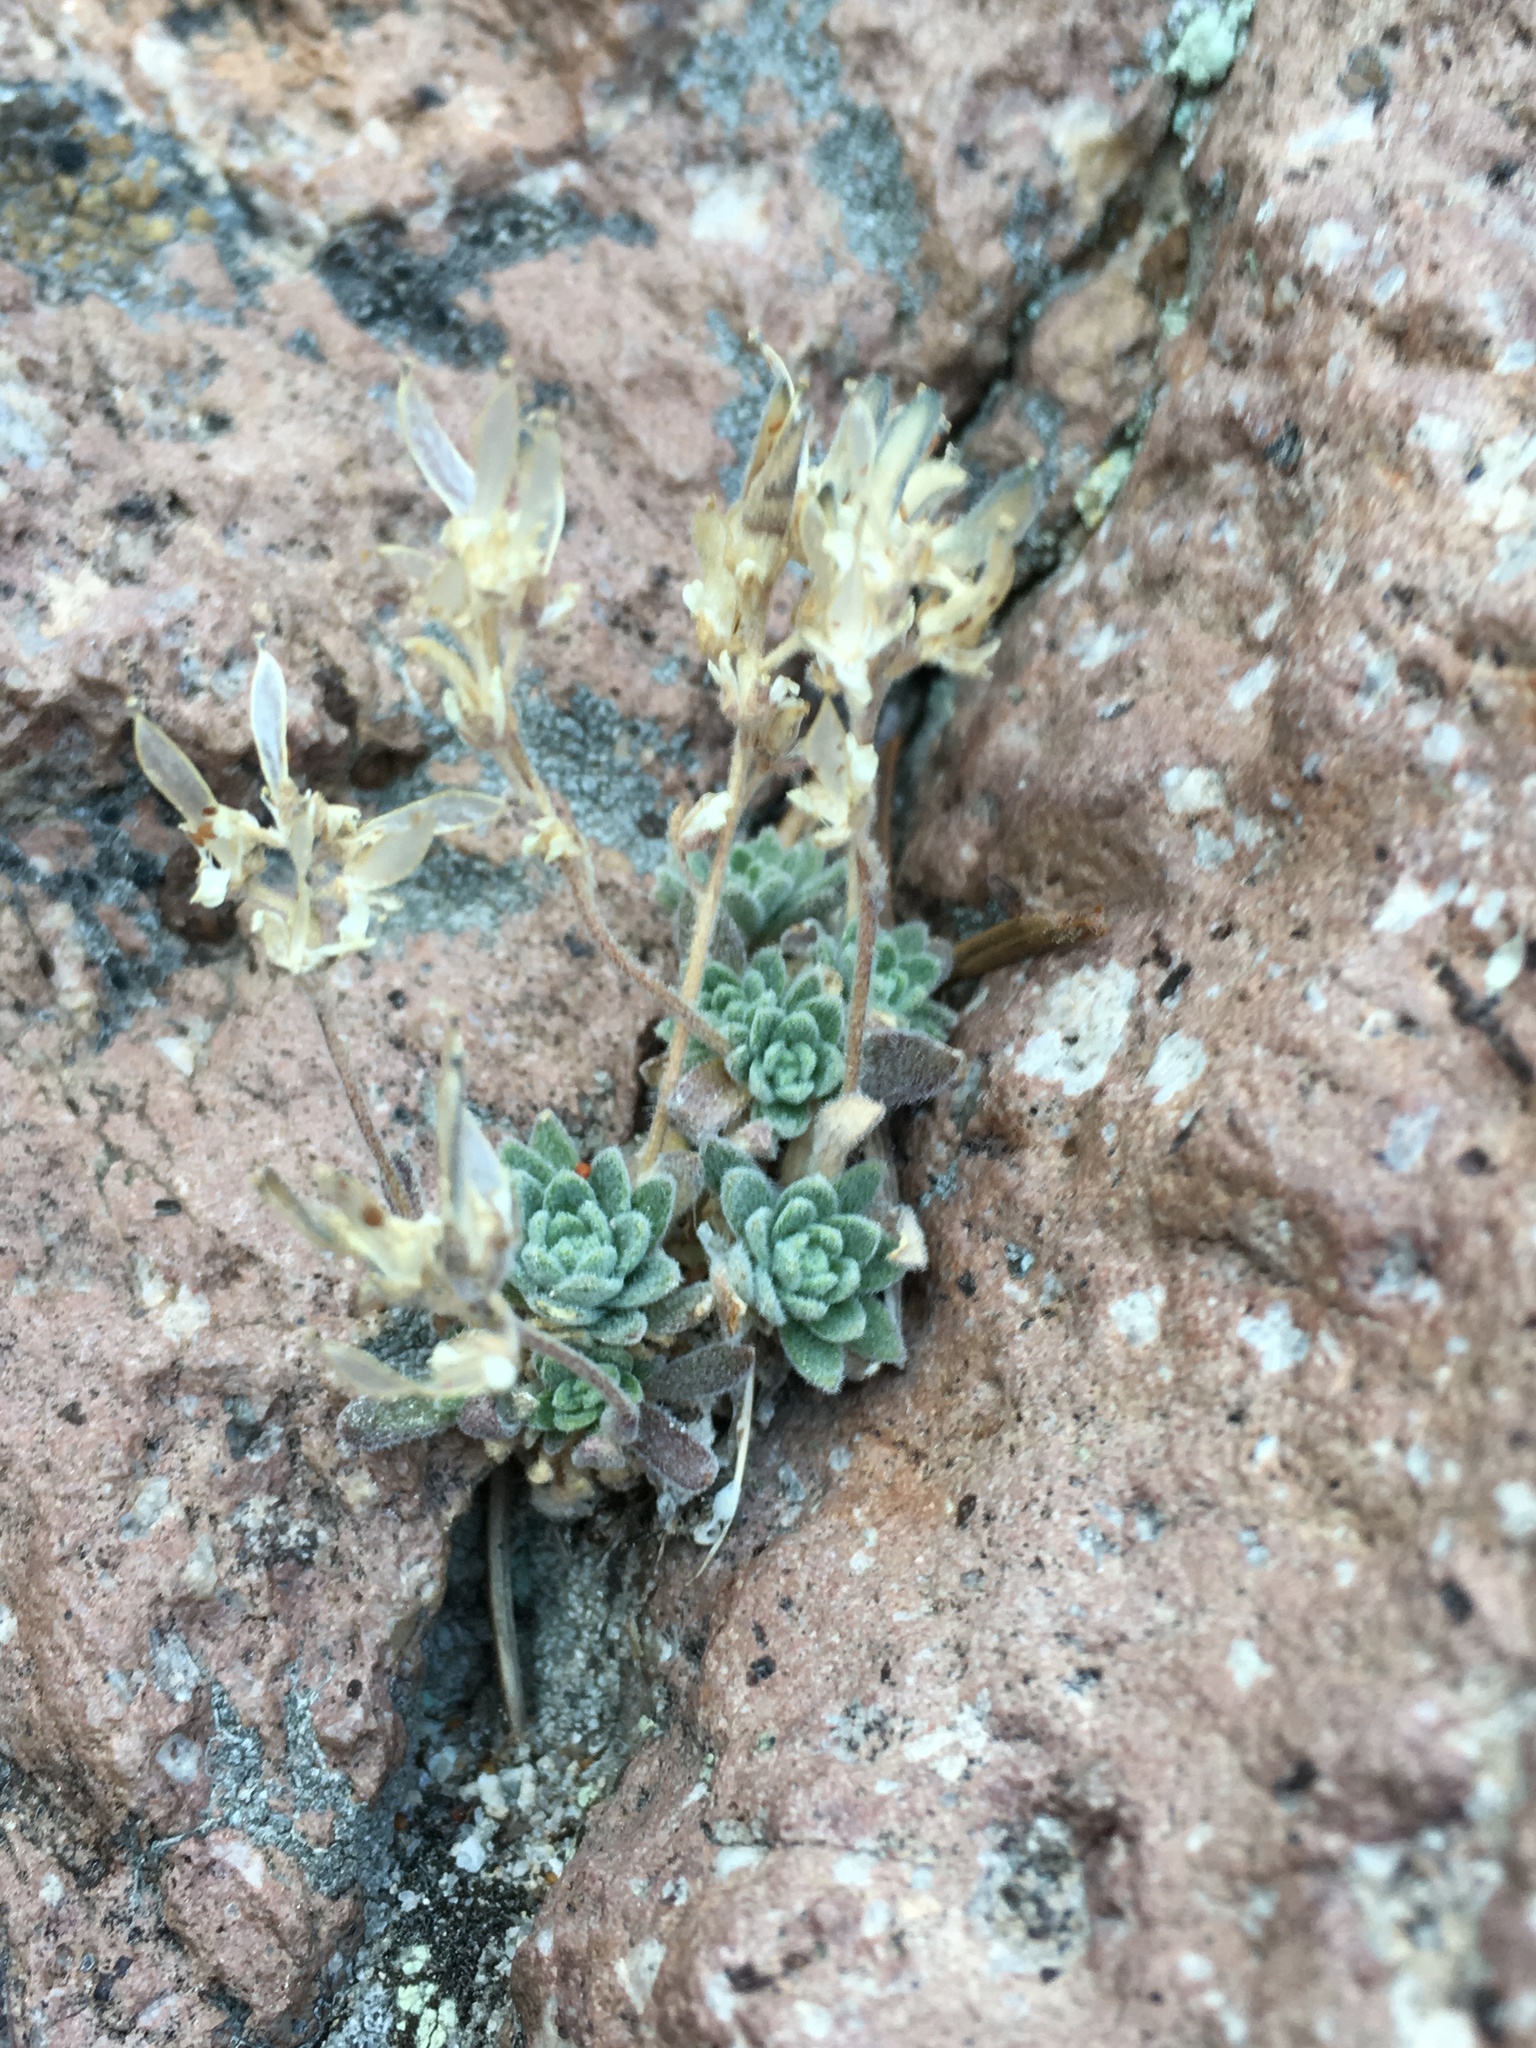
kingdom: Plantae
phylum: Tracheophyta
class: Magnoliopsida
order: Brassicales
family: Brassicaceae
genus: Draba
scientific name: Draba breweri
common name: Cushion draba
